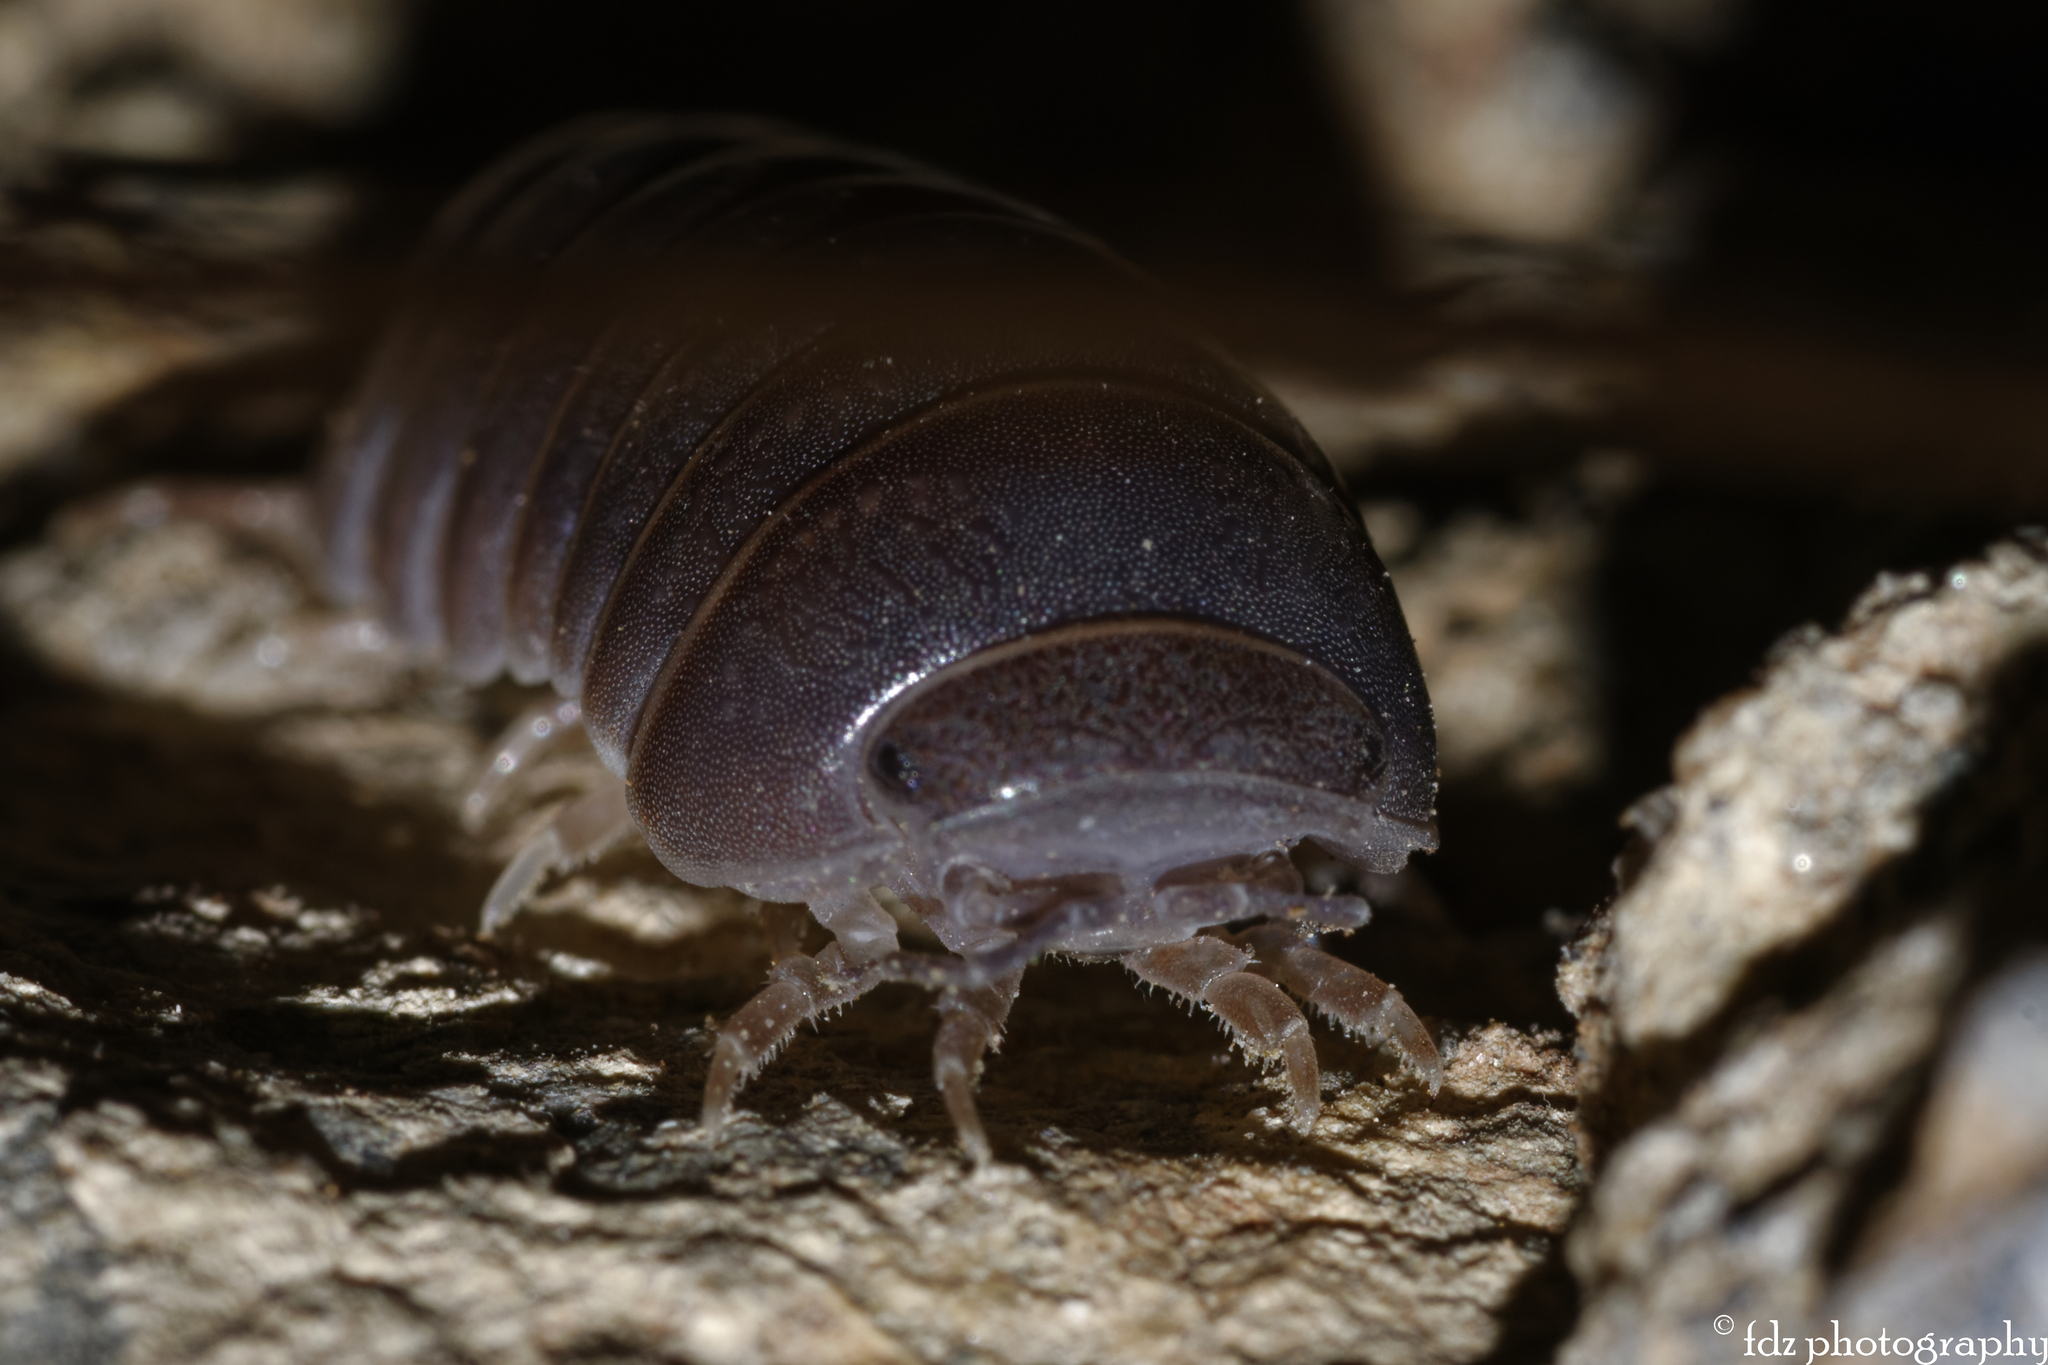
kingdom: Animalia
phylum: Arthropoda
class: Malacostraca
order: Isopoda
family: Armadillidae
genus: Armadillo
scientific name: Armadillo officinalis
